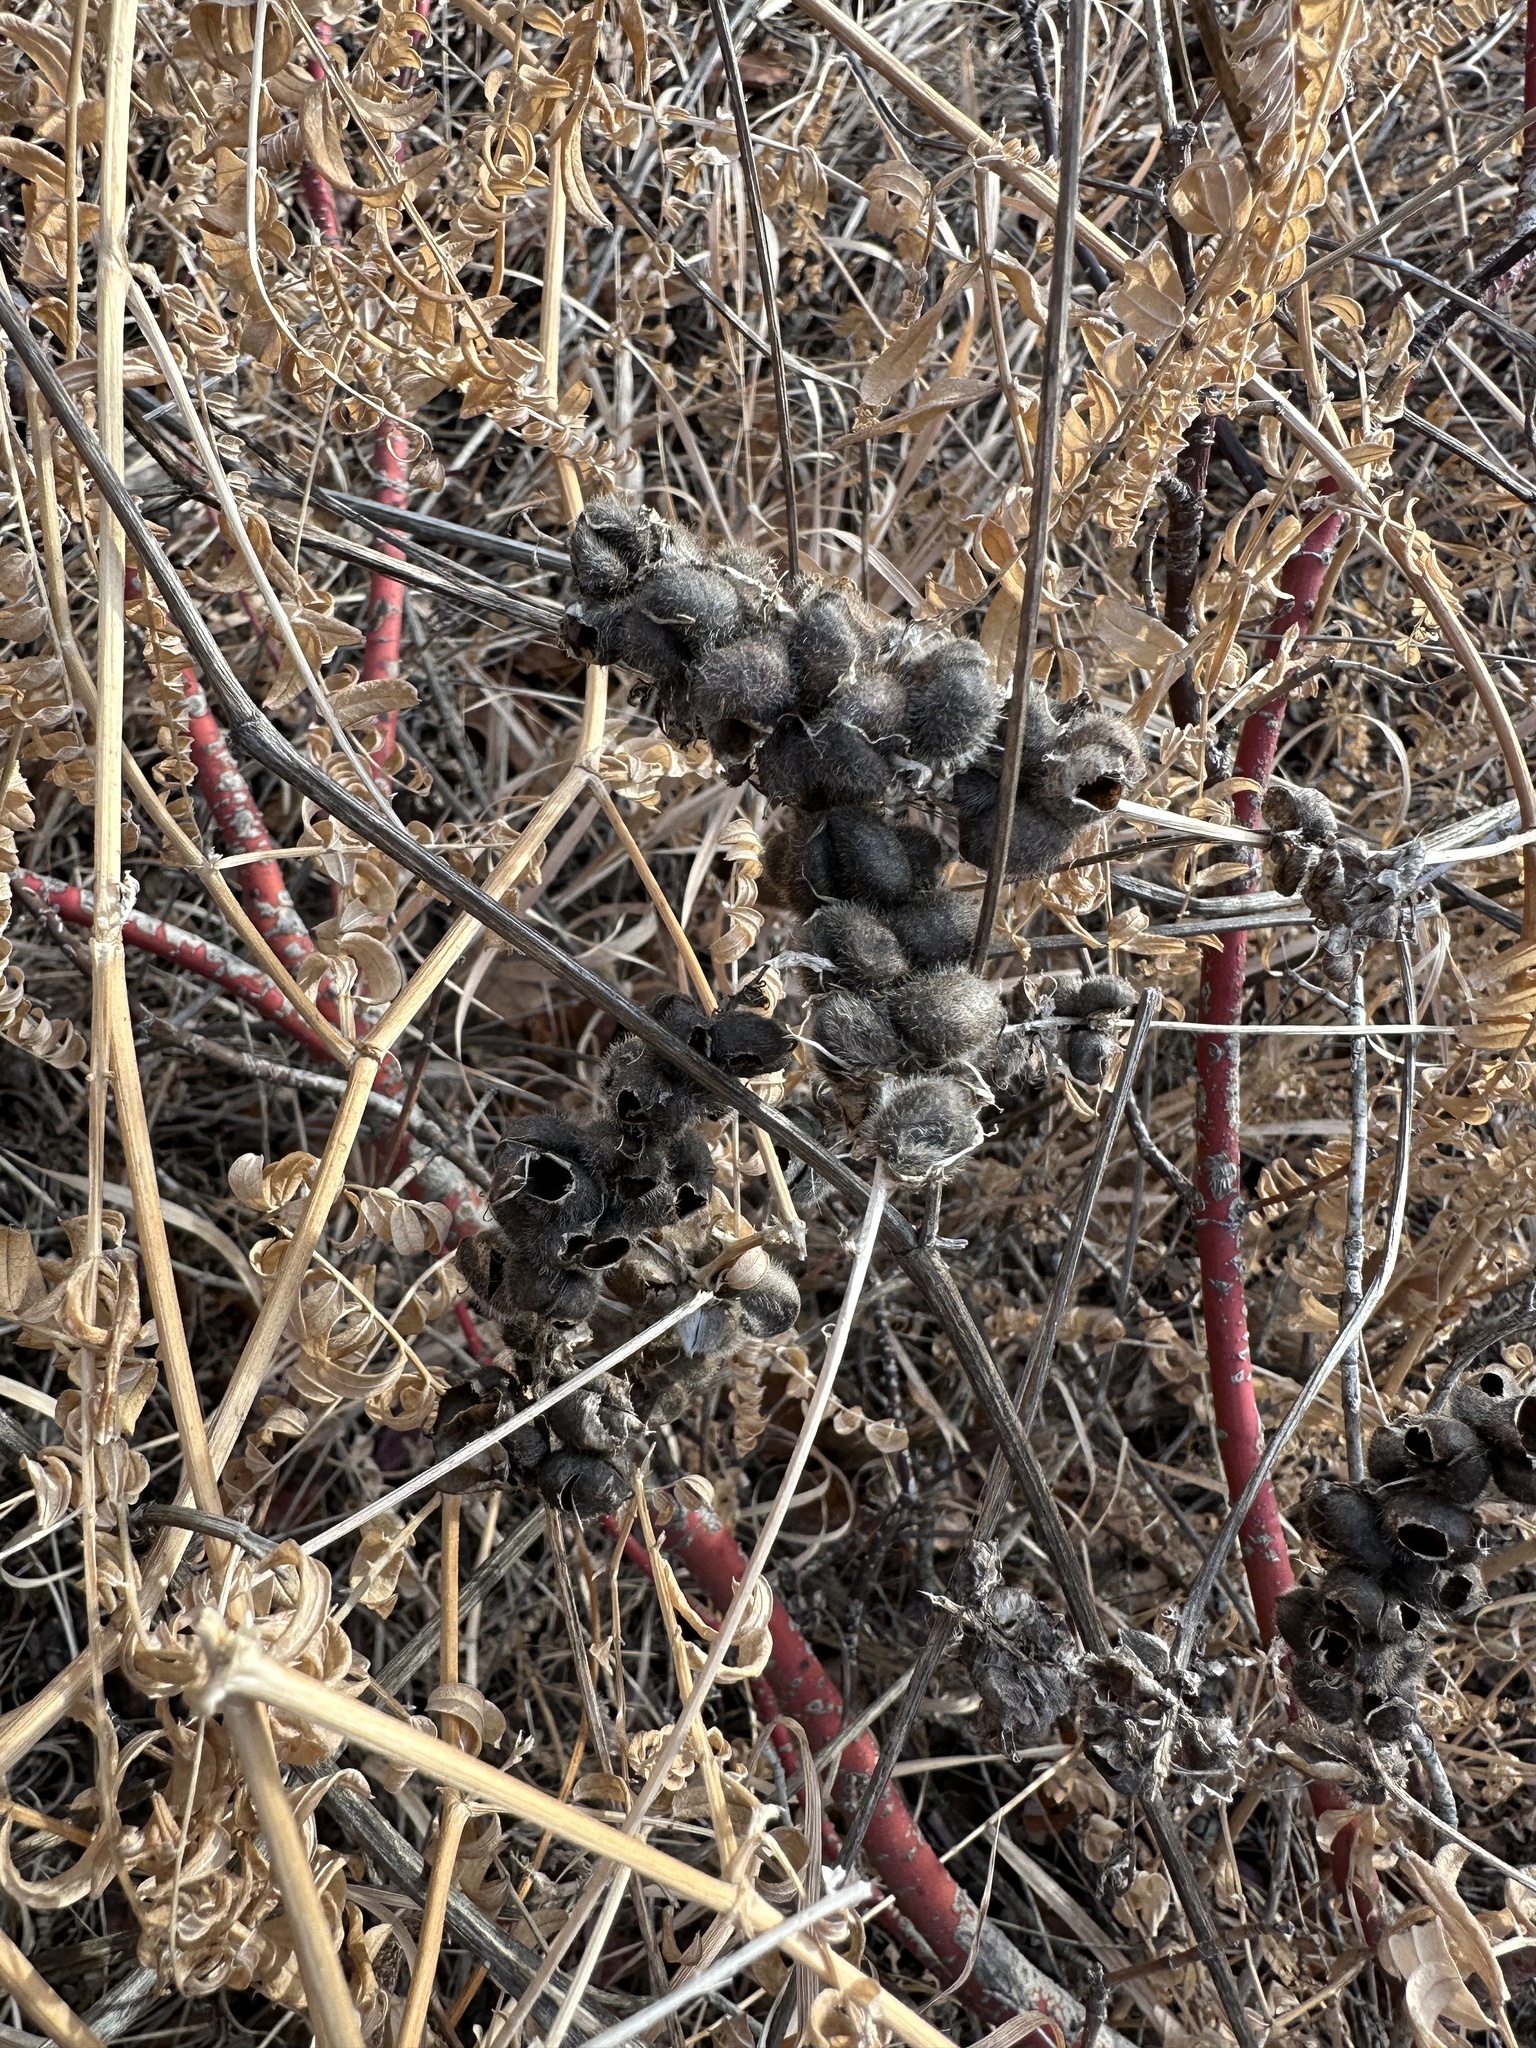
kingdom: Plantae
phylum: Tracheophyta
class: Magnoliopsida
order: Fabales
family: Fabaceae
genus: Astragalus
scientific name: Astragalus cicer
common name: Chick-pea milk-vetch
